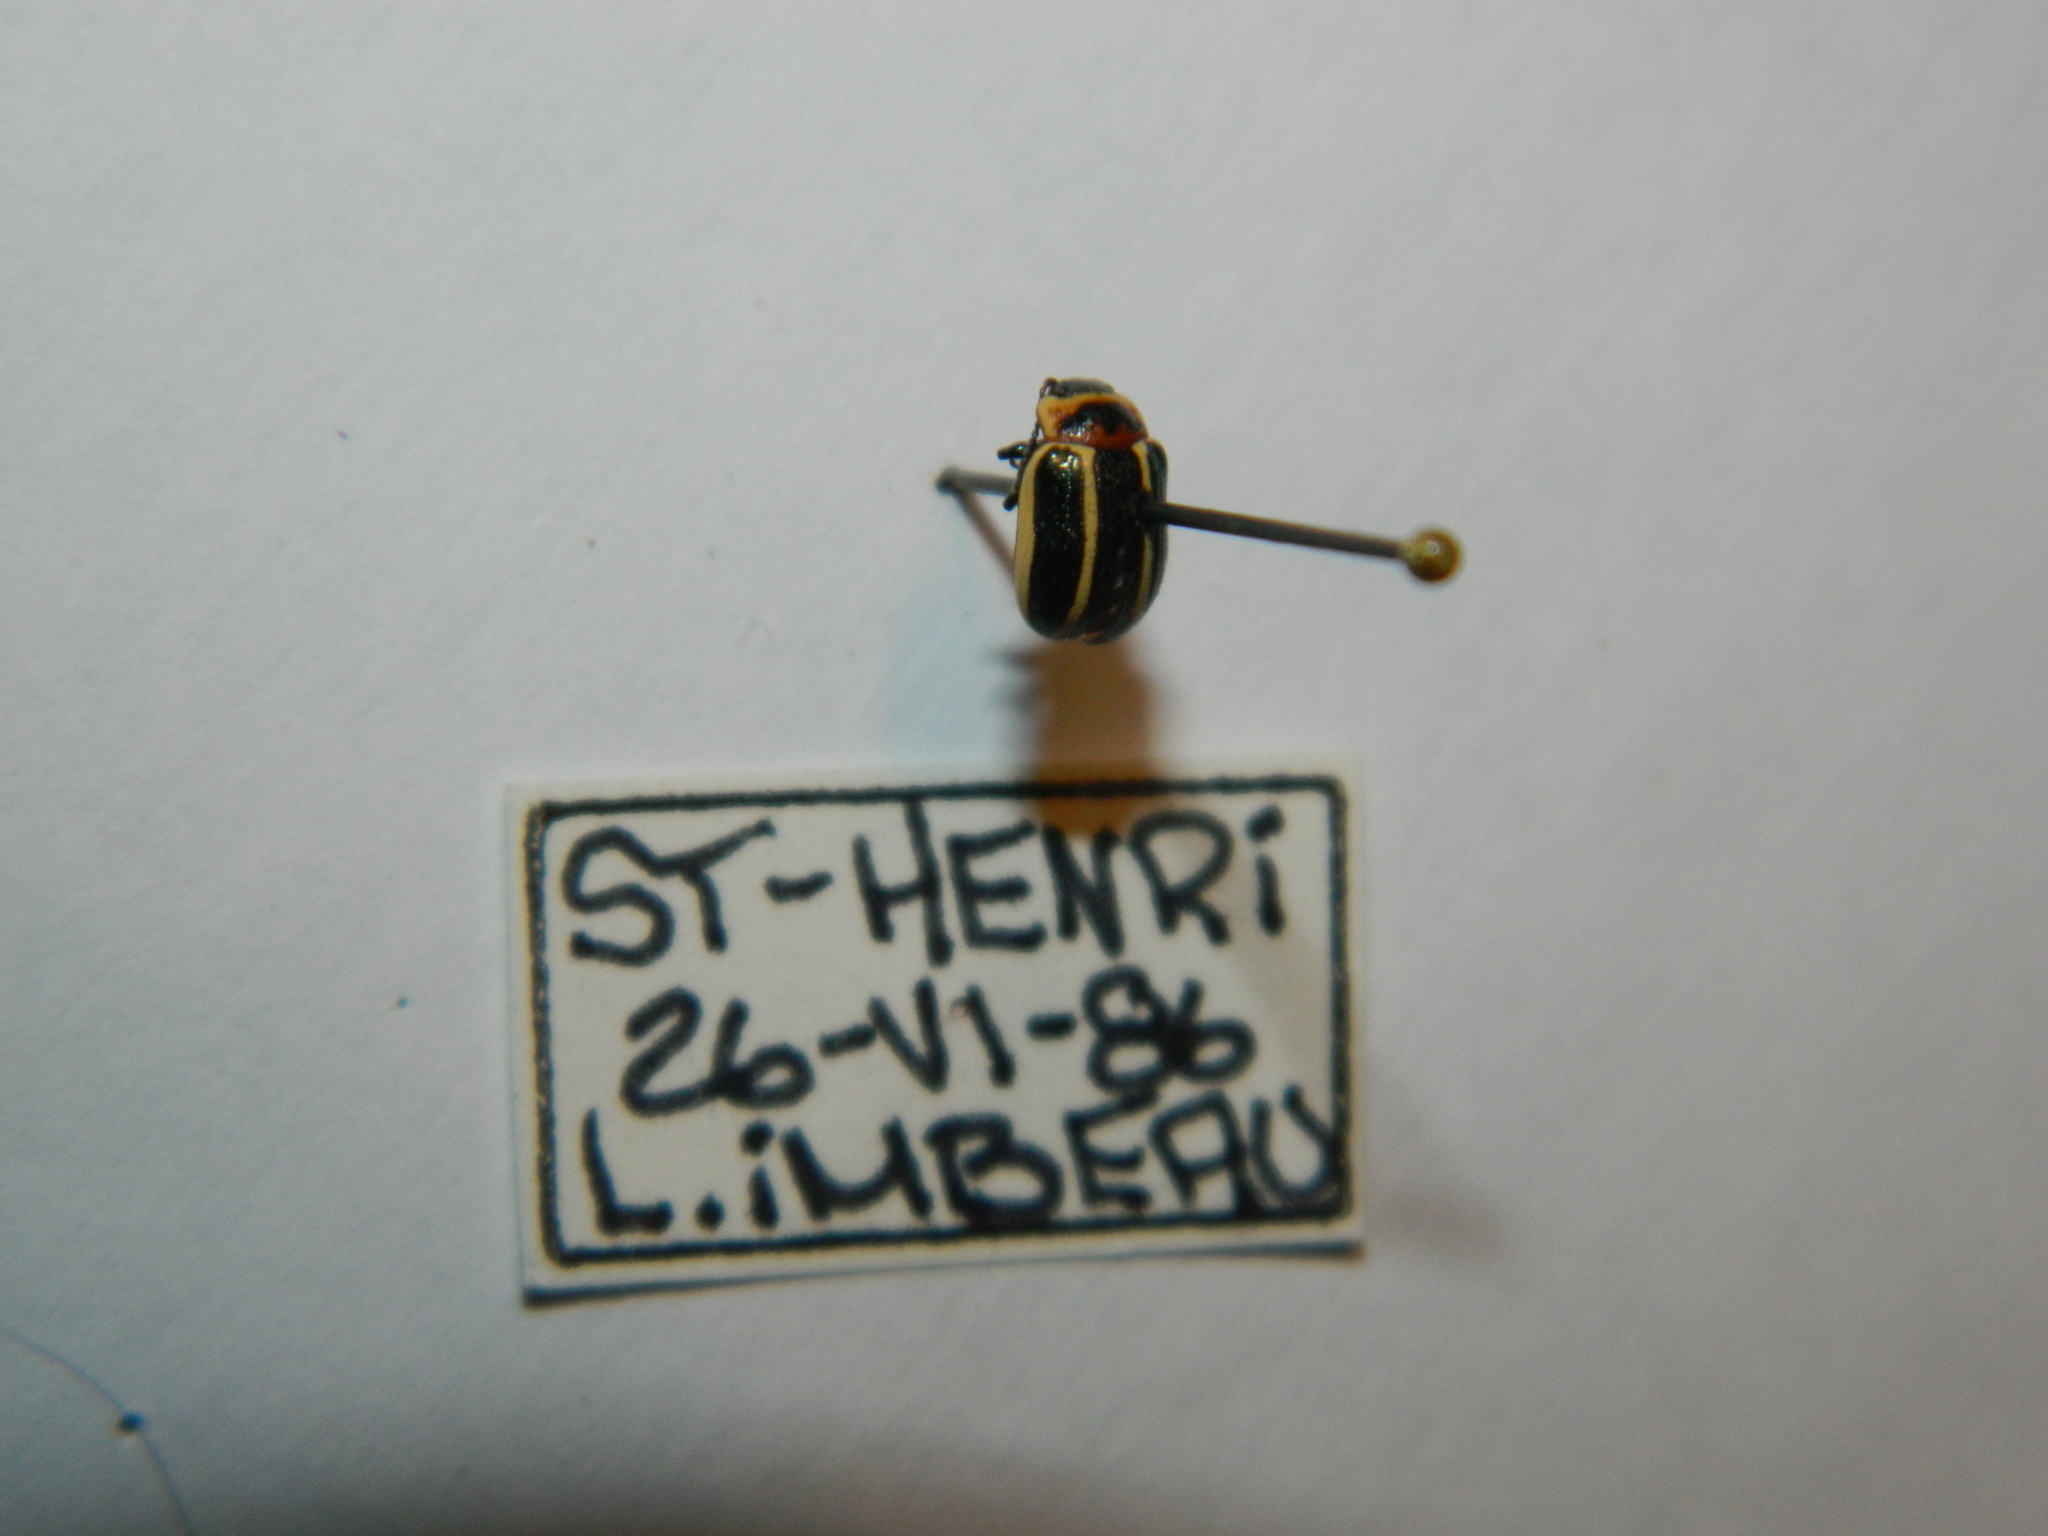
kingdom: Animalia
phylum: Arthropoda
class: Insecta
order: Coleoptera
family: Chrysomelidae
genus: Calligrapha
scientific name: Calligrapha californica
